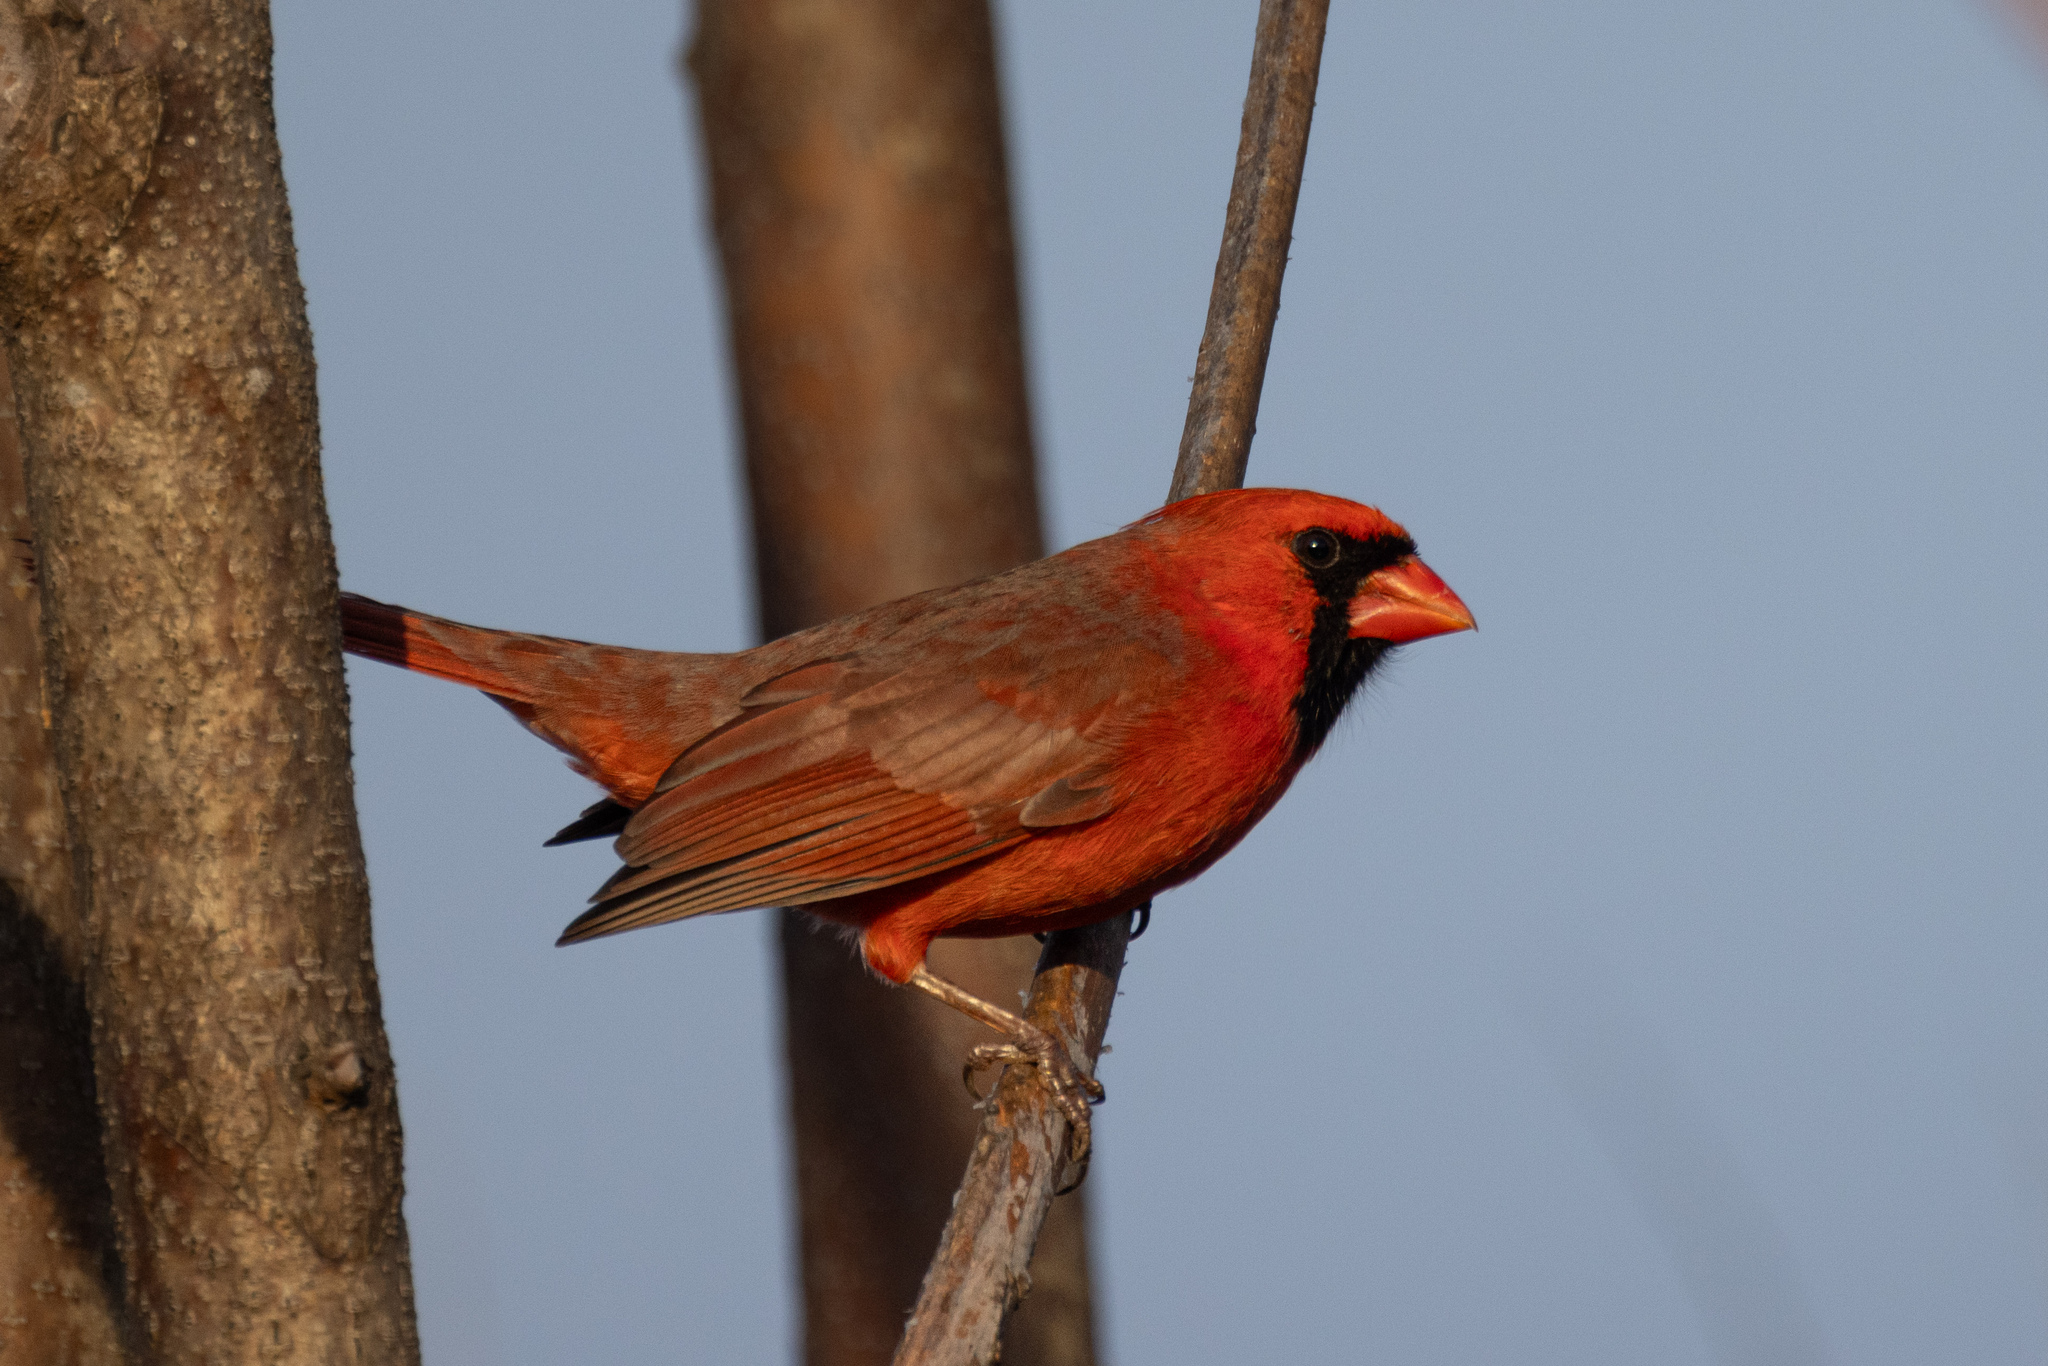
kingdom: Animalia
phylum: Chordata
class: Aves
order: Passeriformes
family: Cardinalidae
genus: Cardinalis
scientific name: Cardinalis cardinalis
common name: Northern cardinal
